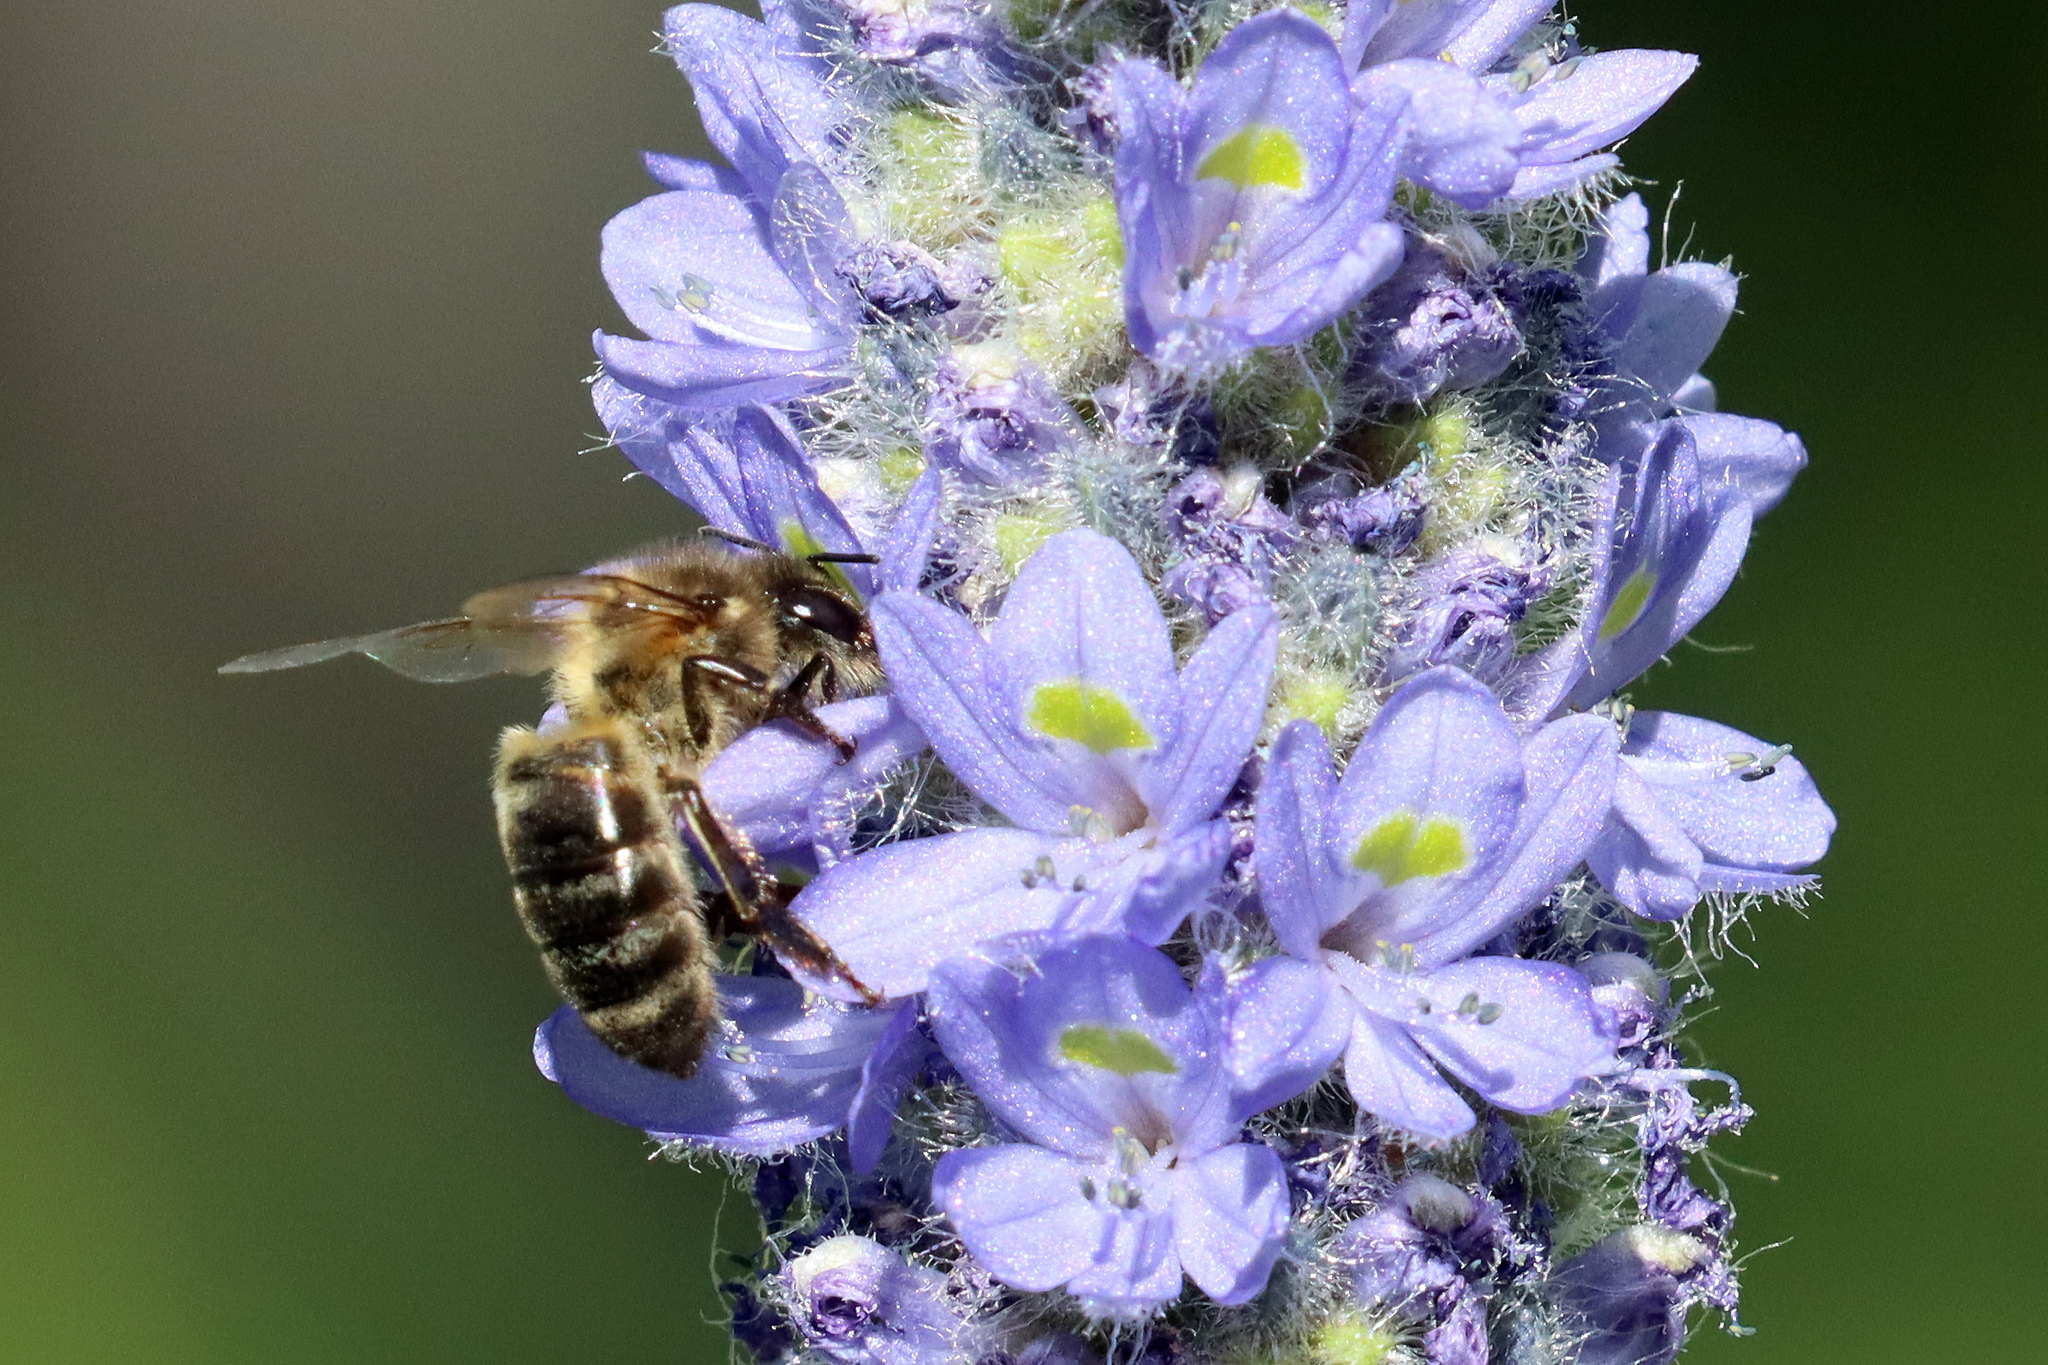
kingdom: Animalia
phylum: Arthropoda
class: Insecta
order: Hymenoptera
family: Apidae
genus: Apis
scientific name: Apis mellifera
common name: Honey bee
